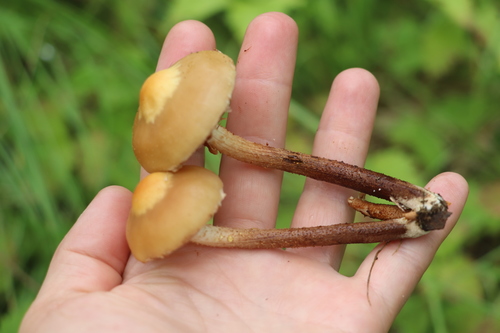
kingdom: Fungi
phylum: Basidiomycota
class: Agaricomycetes
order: Agaricales
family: Strophariaceae
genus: Kuehneromyces
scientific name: Kuehneromyces mutabilis
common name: Sheathed woodtuft
